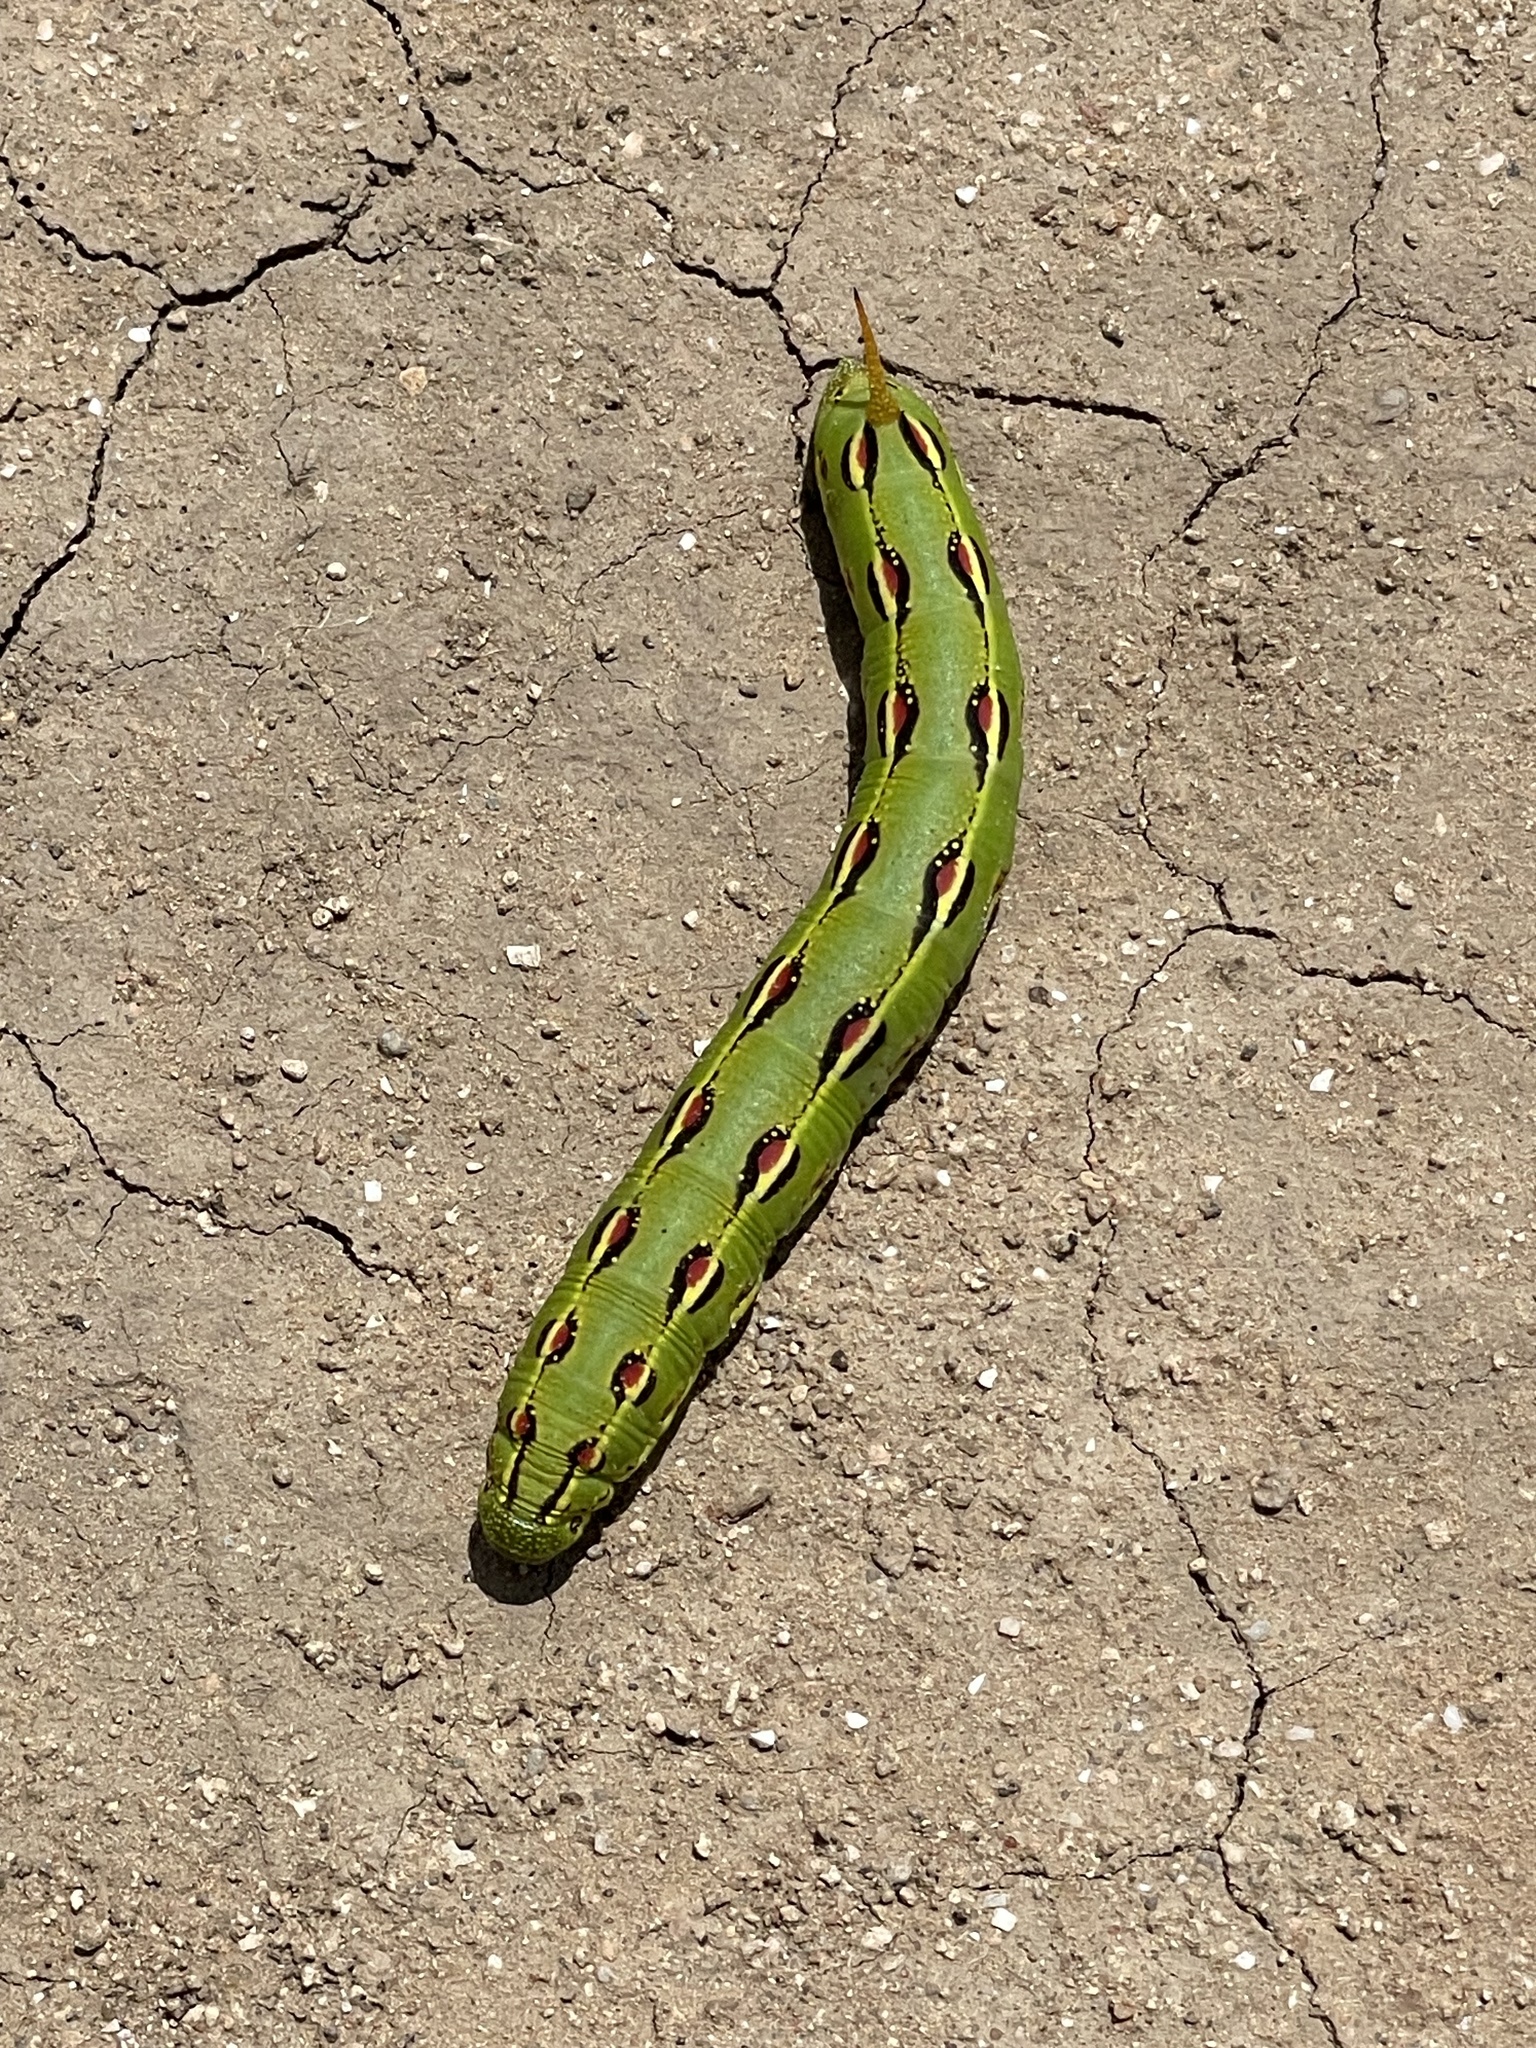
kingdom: Animalia
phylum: Arthropoda
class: Insecta
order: Lepidoptera
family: Sphingidae
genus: Hyles
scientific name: Hyles lineata
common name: White-lined sphinx
